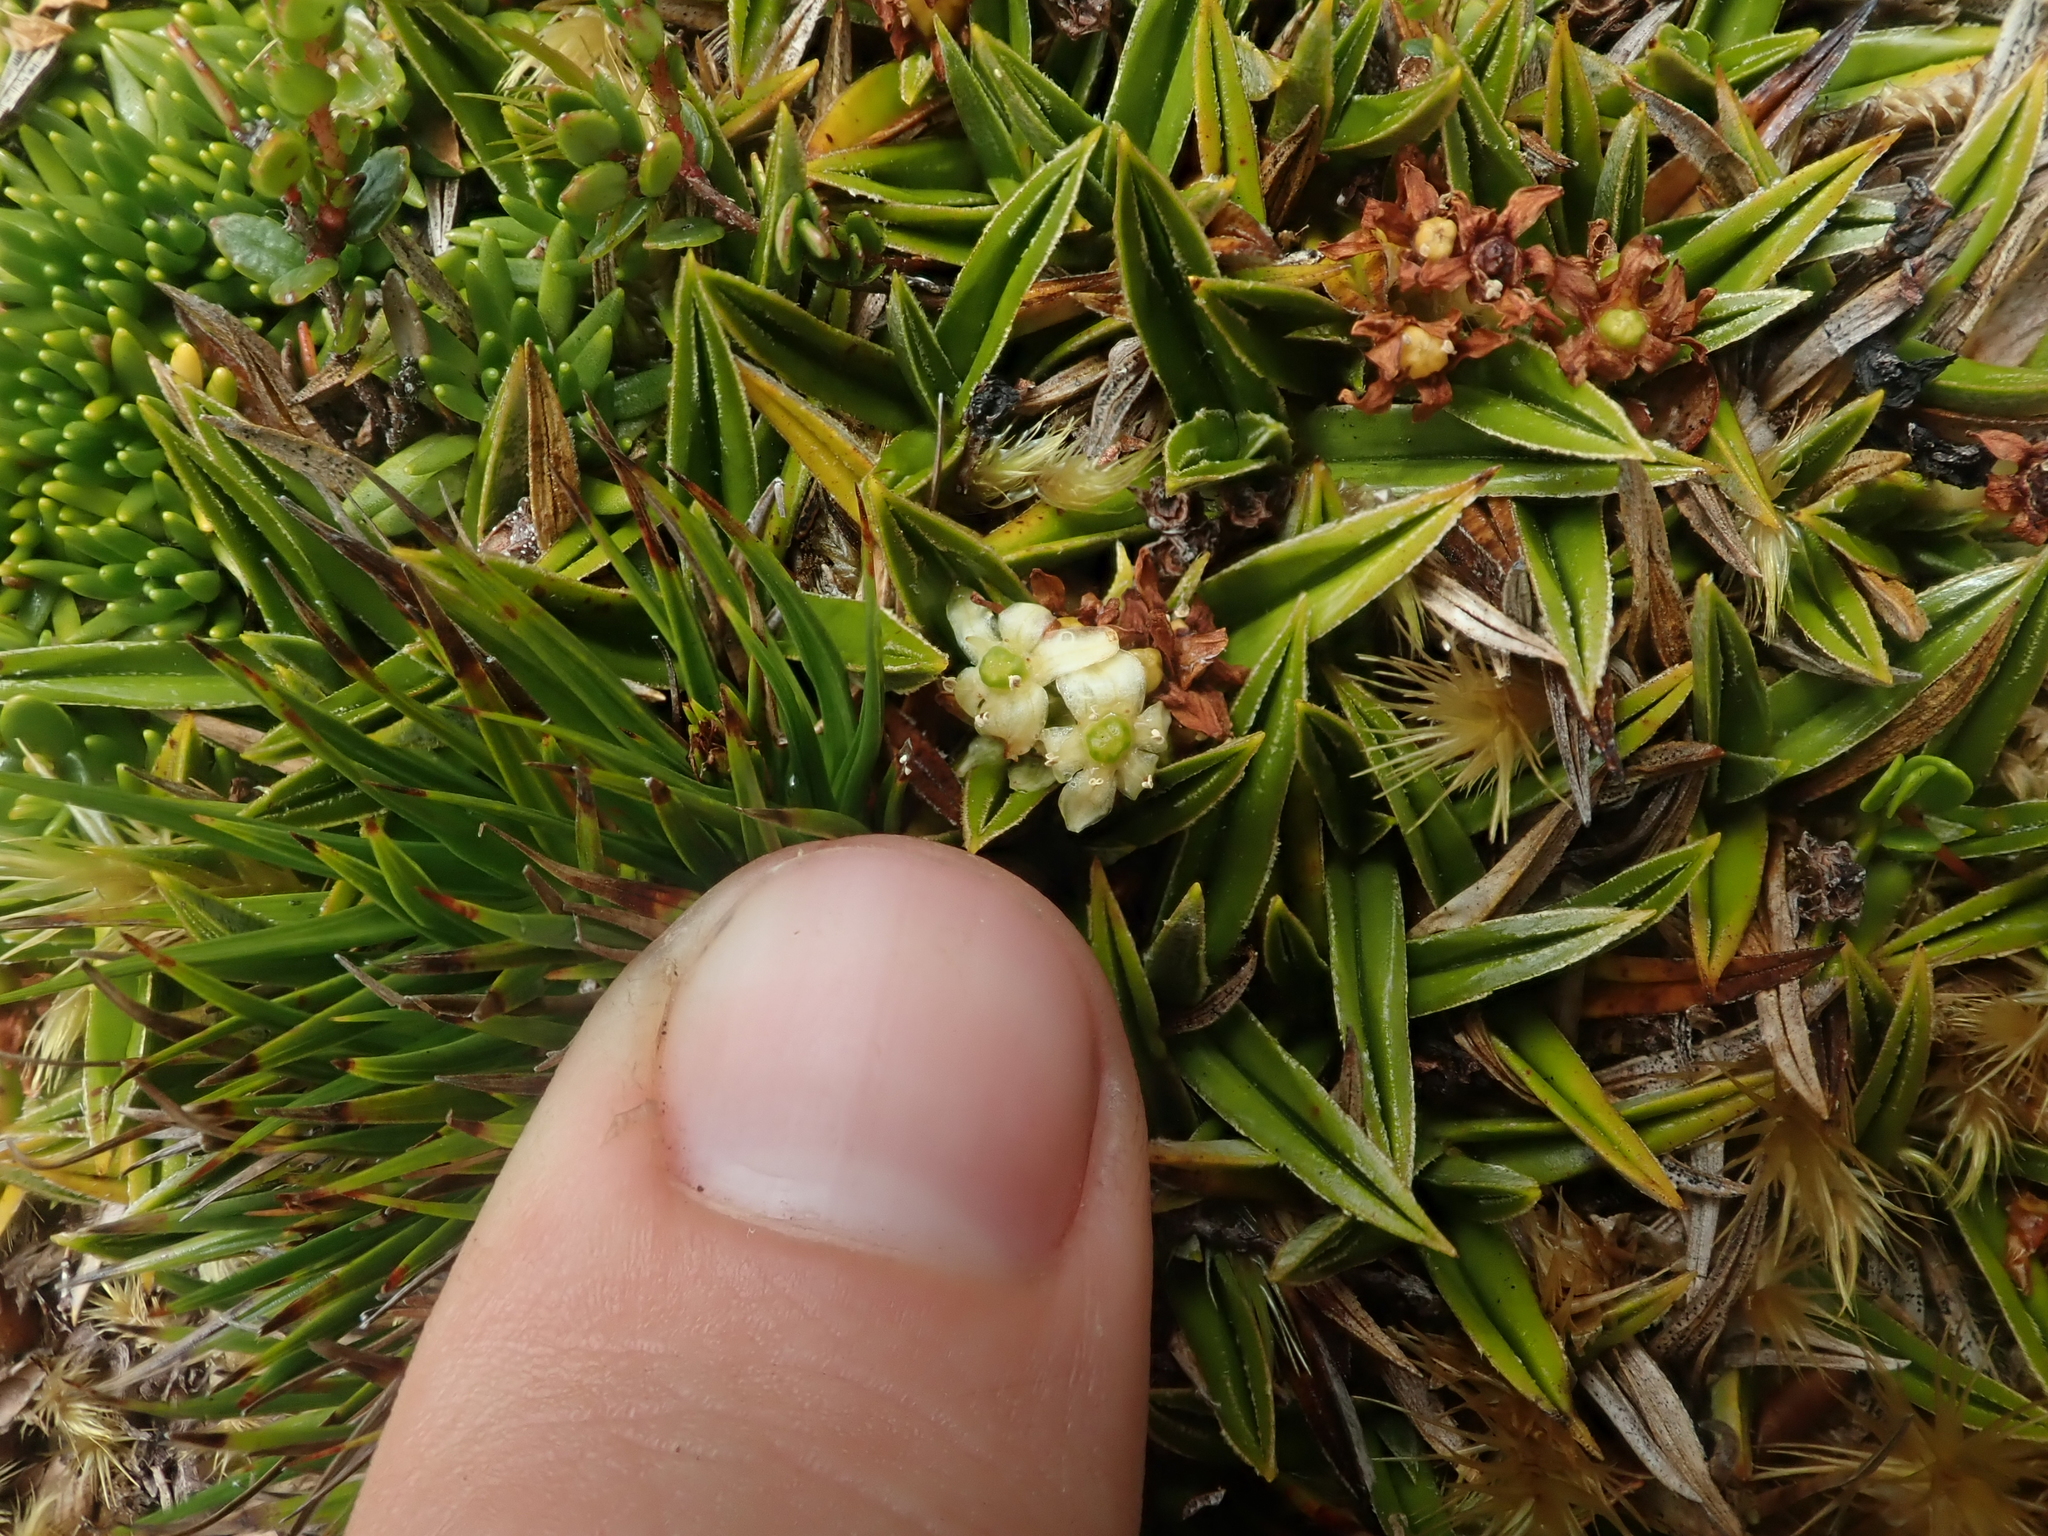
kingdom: Plantae
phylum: Tracheophyta
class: Liliopsida
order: Asparagales
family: Asteliaceae
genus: Astelia
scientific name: Astelia pumila
